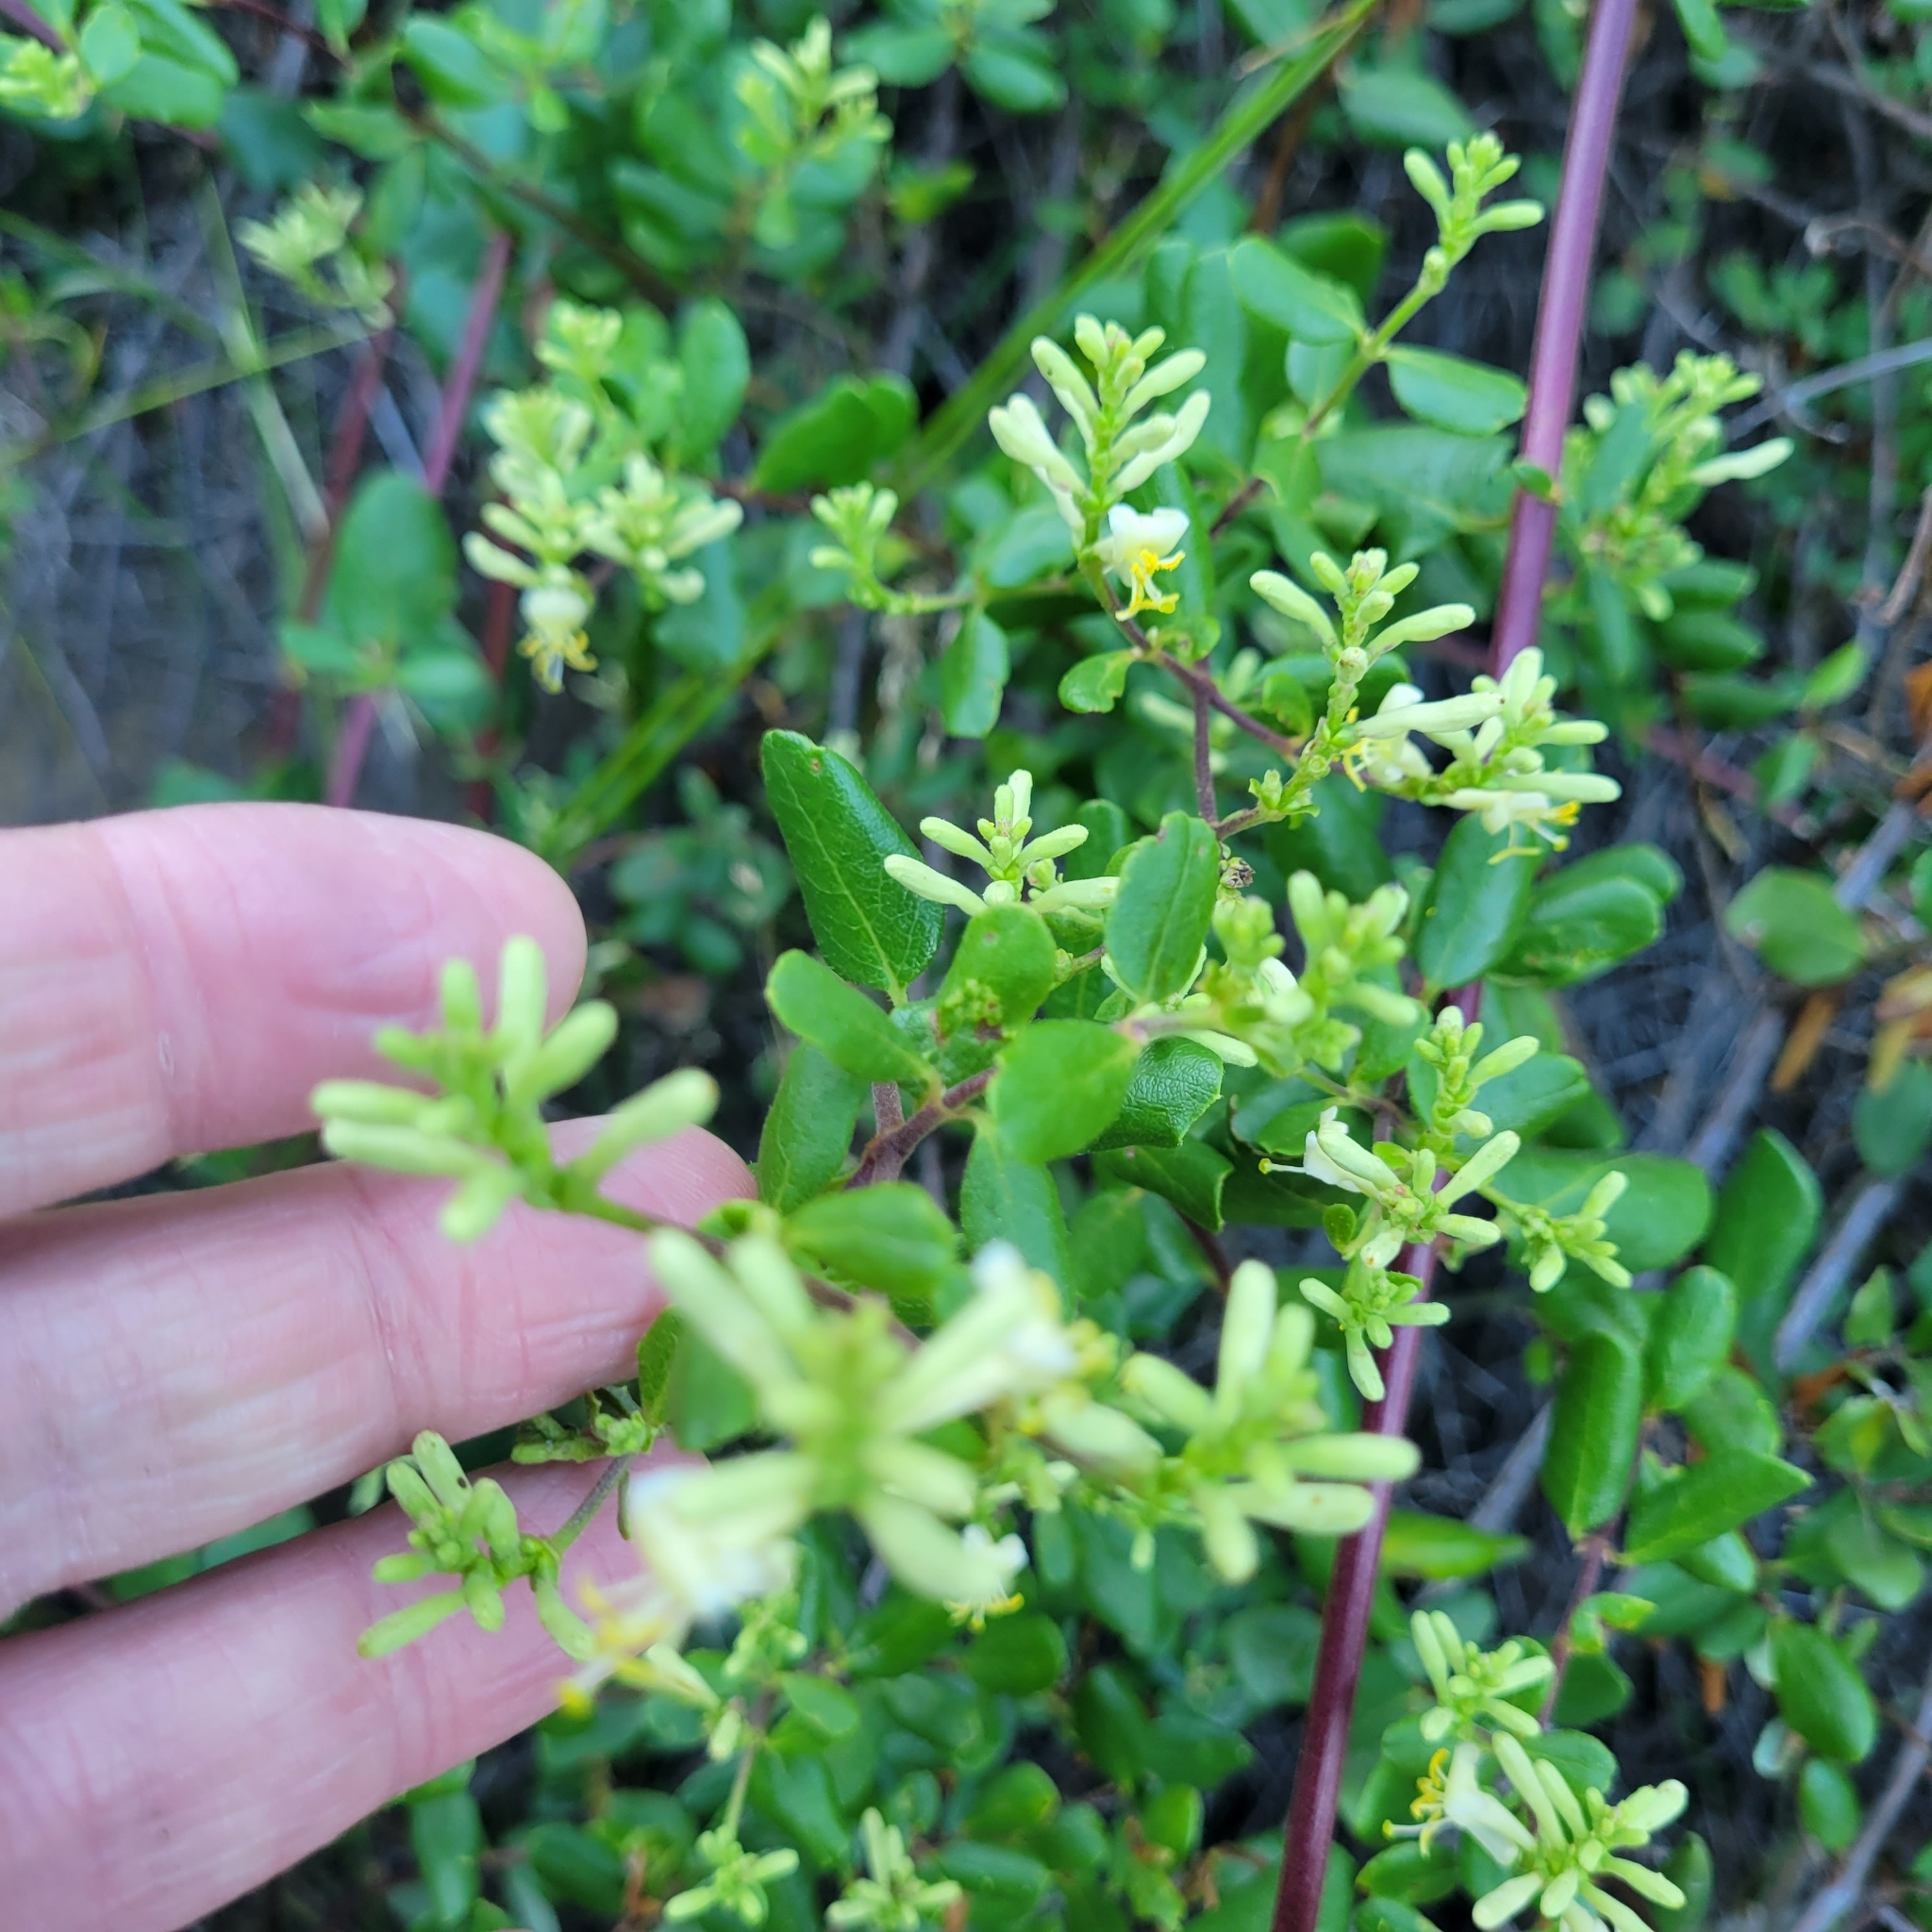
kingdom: Plantae
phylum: Tracheophyta
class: Magnoliopsida
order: Dipsacales
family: Caprifoliaceae
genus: Lonicera
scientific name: Lonicera subspicata
